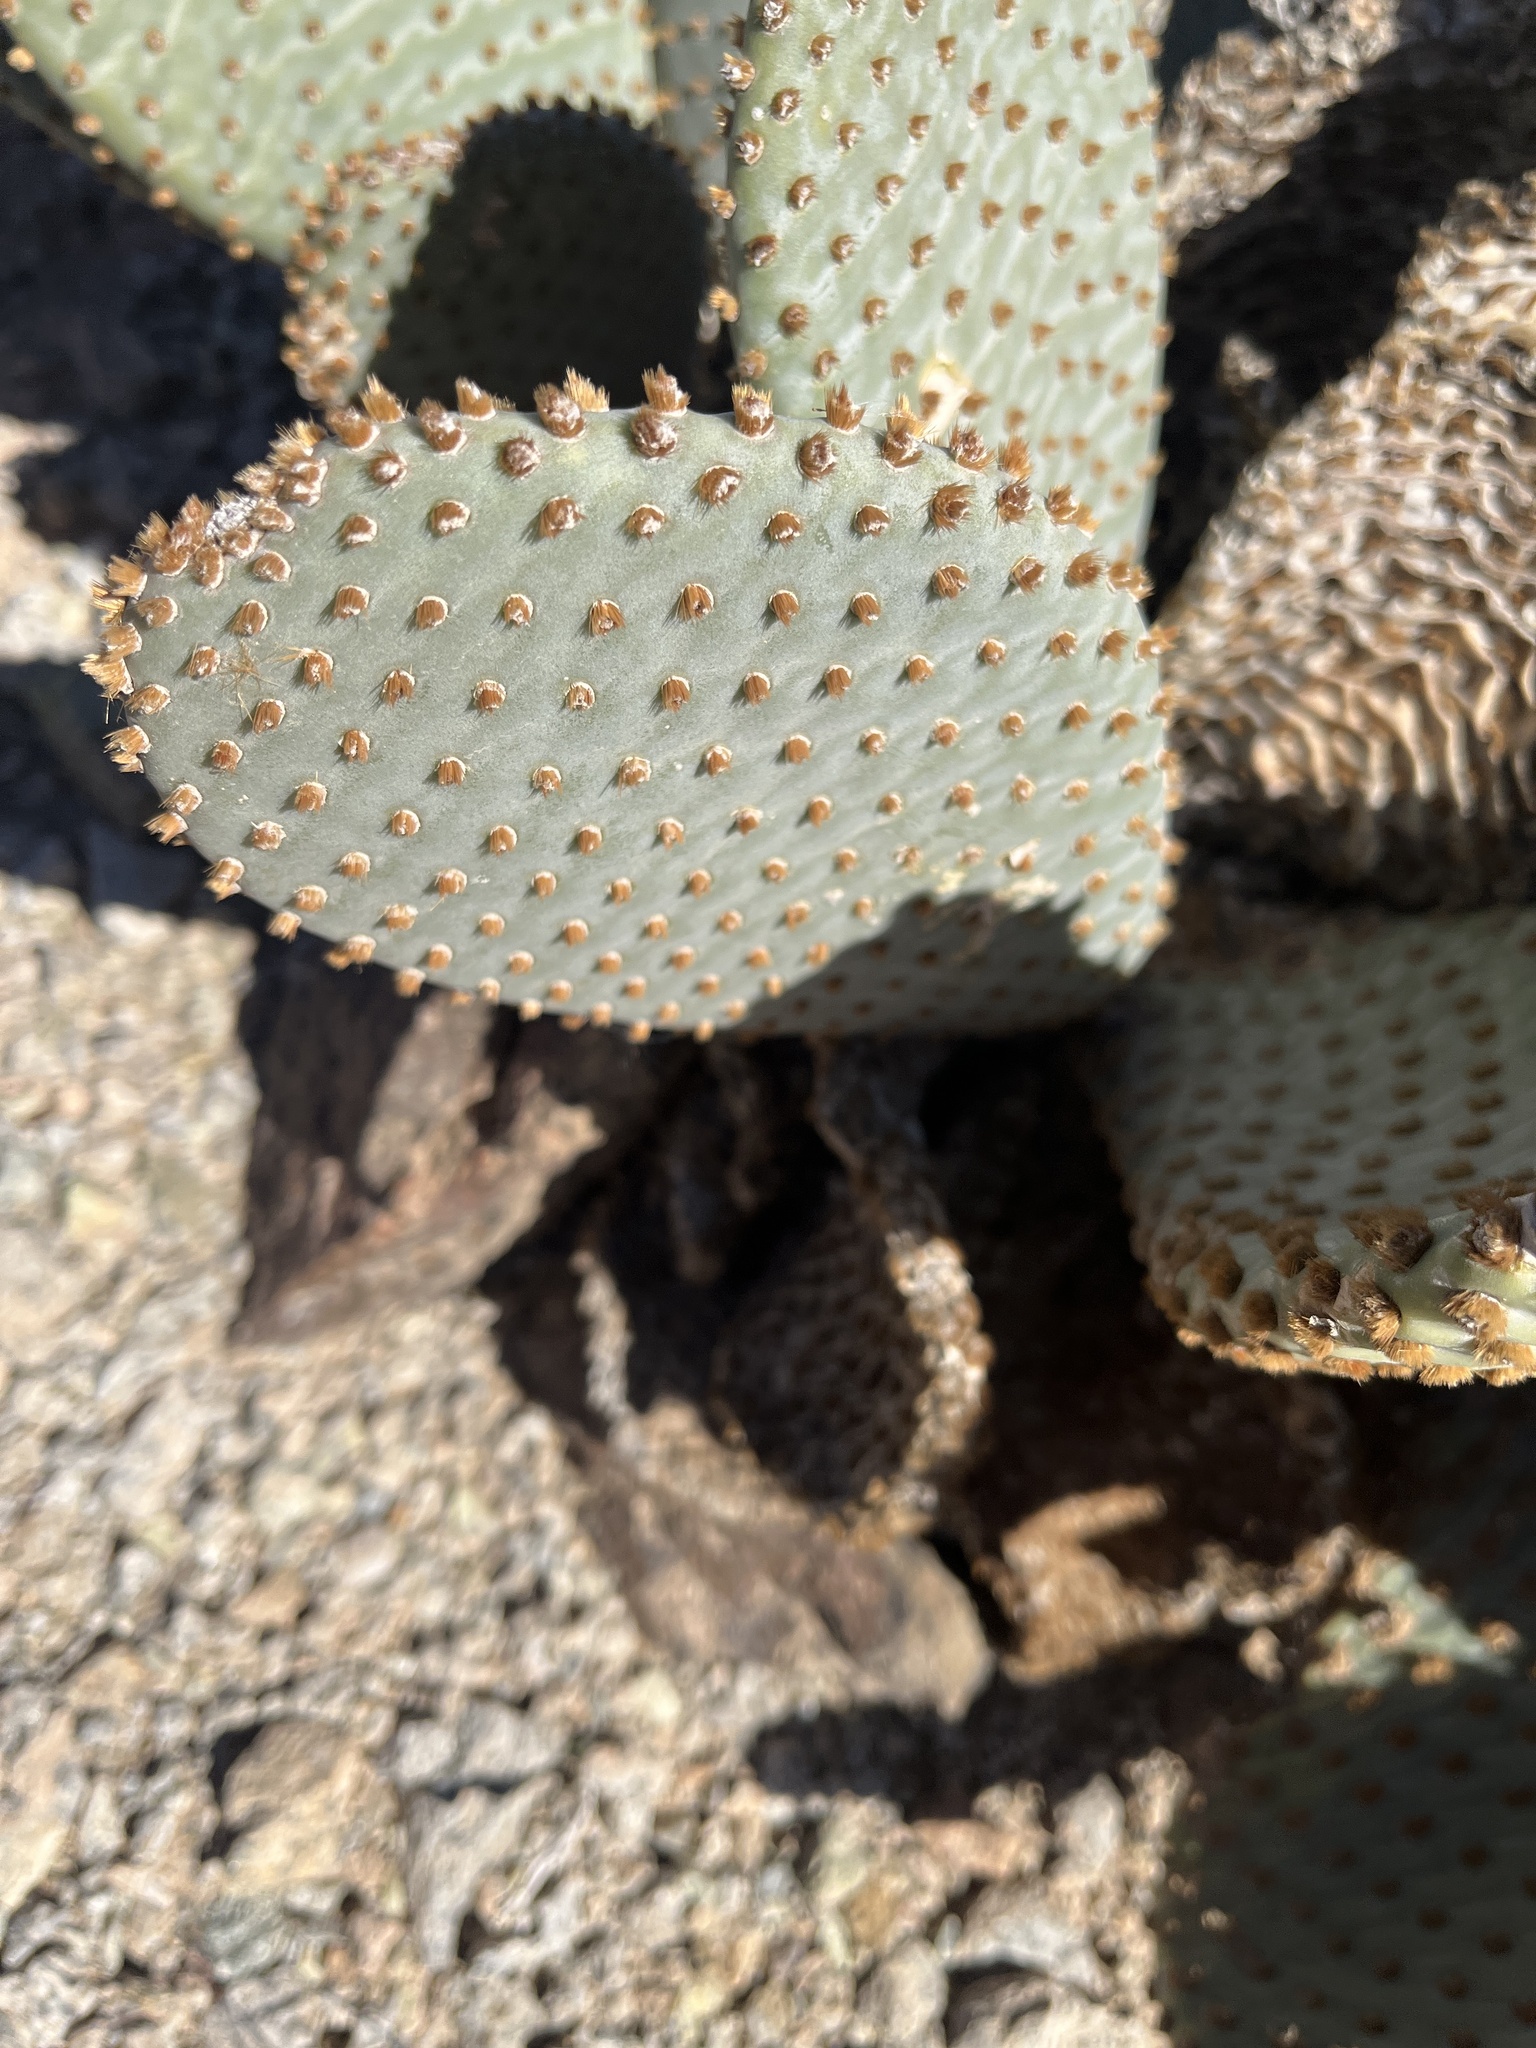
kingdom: Plantae
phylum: Tracheophyta
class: Magnoliopsida
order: Caryophyllales
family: Cactaceae
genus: Opuntia
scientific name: Opuntia basilaris
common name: Beavertail prickly-pear
